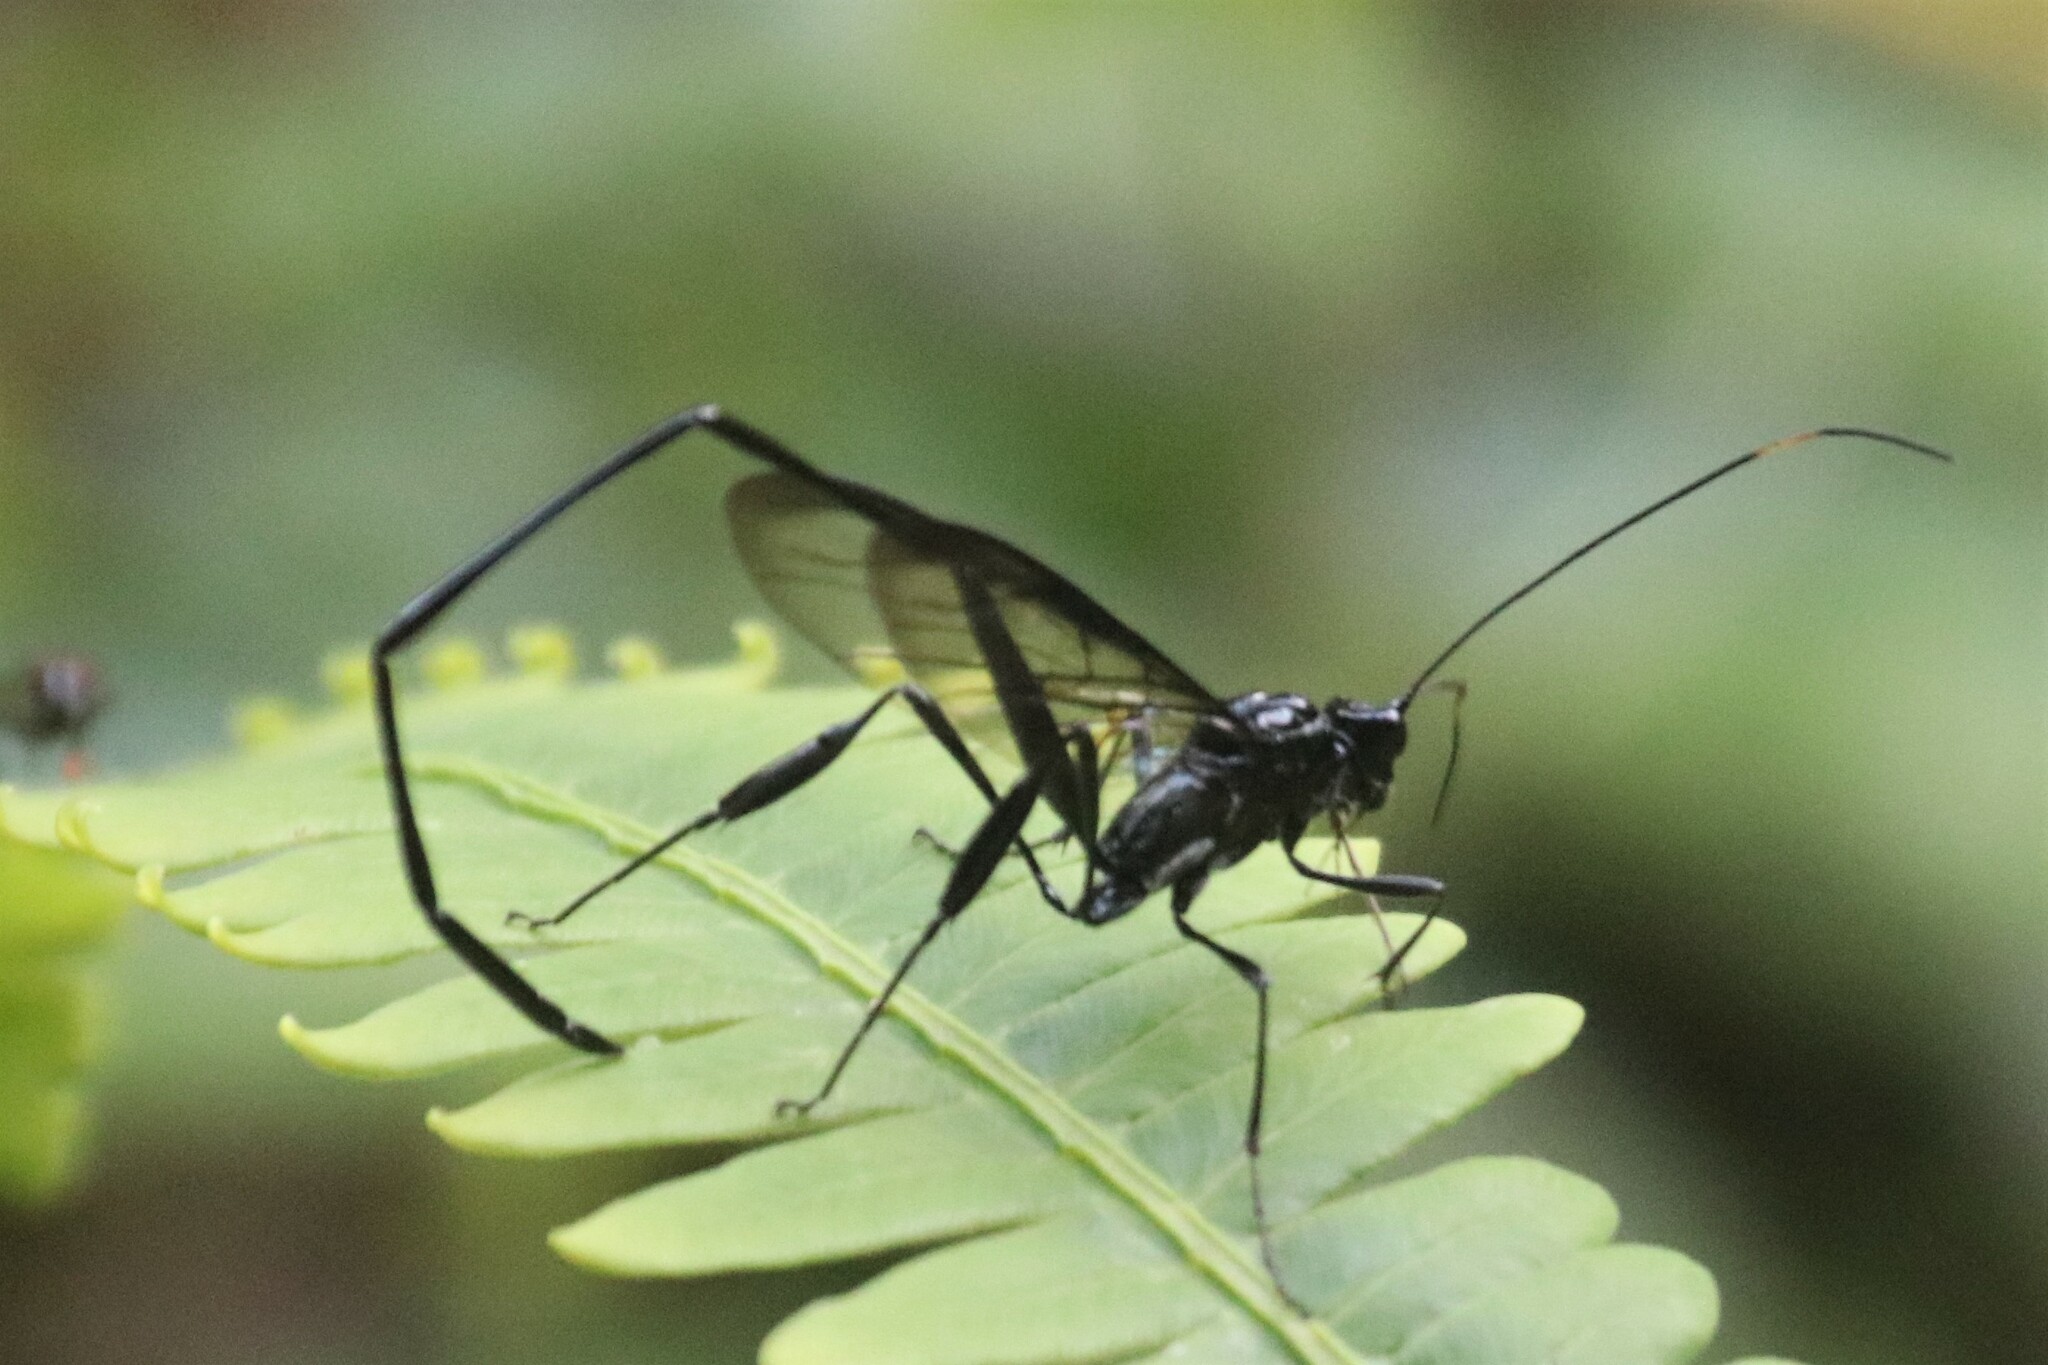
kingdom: Animalia
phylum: Arthropoda
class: Insecta
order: Hymenoptera
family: Pelecinidae
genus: Pelecinus
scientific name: Pelecinus polyturator
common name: American pelecinid wasp
